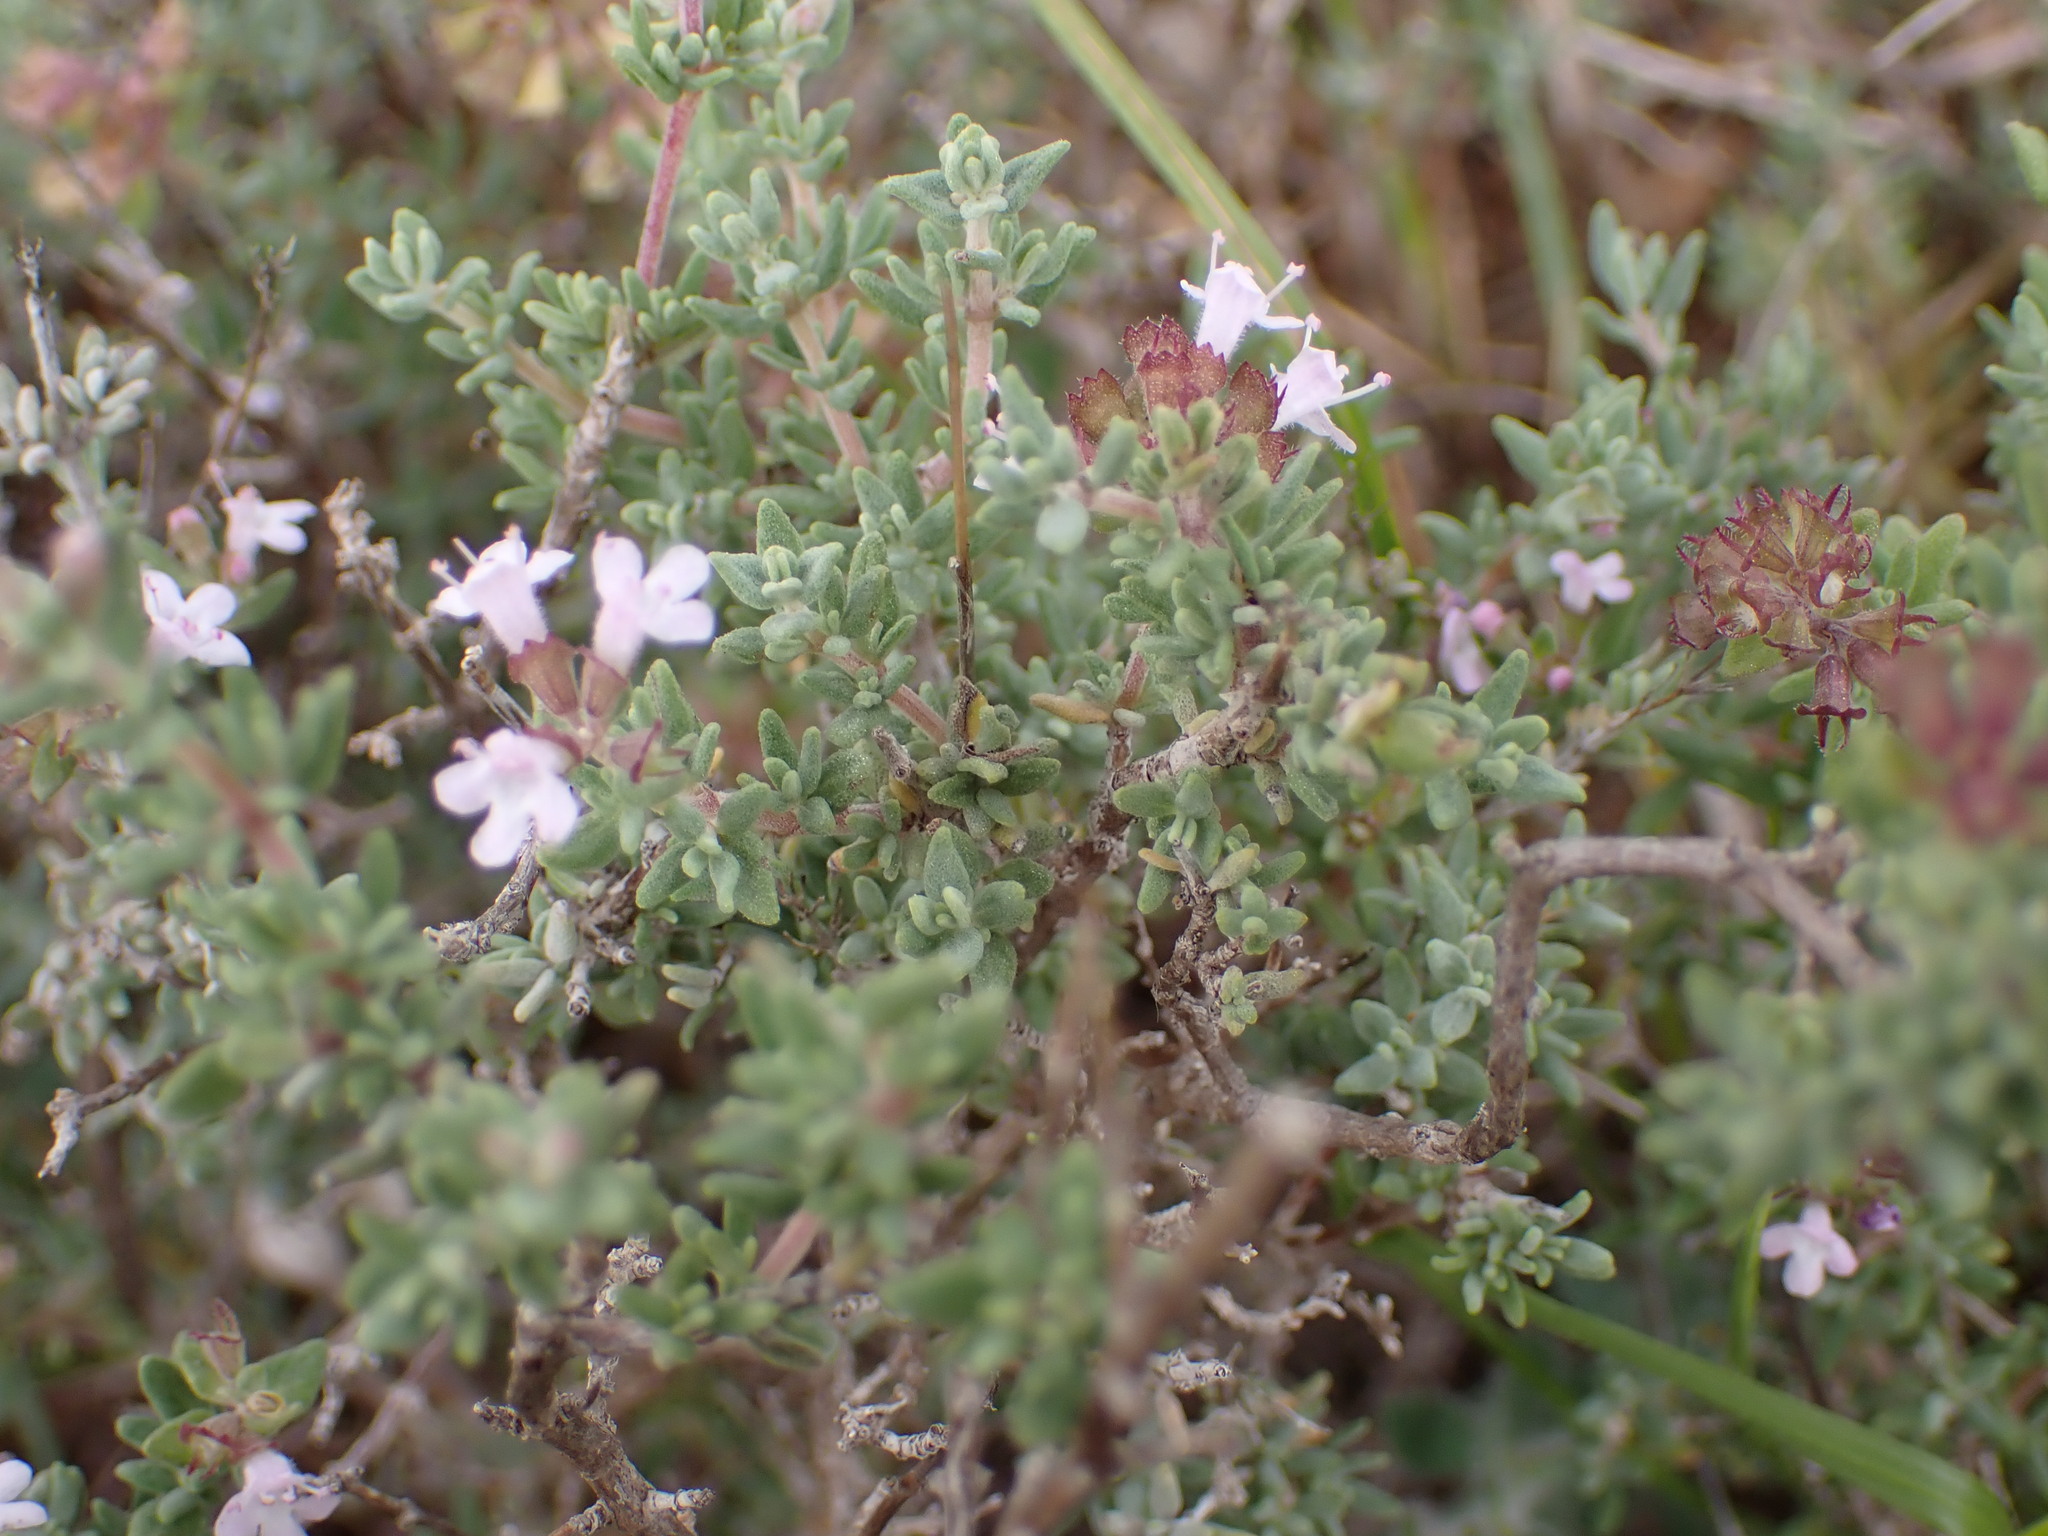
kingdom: Plantae
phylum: Tracheophyta
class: Magnoliopsida
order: Lamiales
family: Lamiaceae
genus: Thymus
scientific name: Thymus vulgaris
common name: Garden thyme
